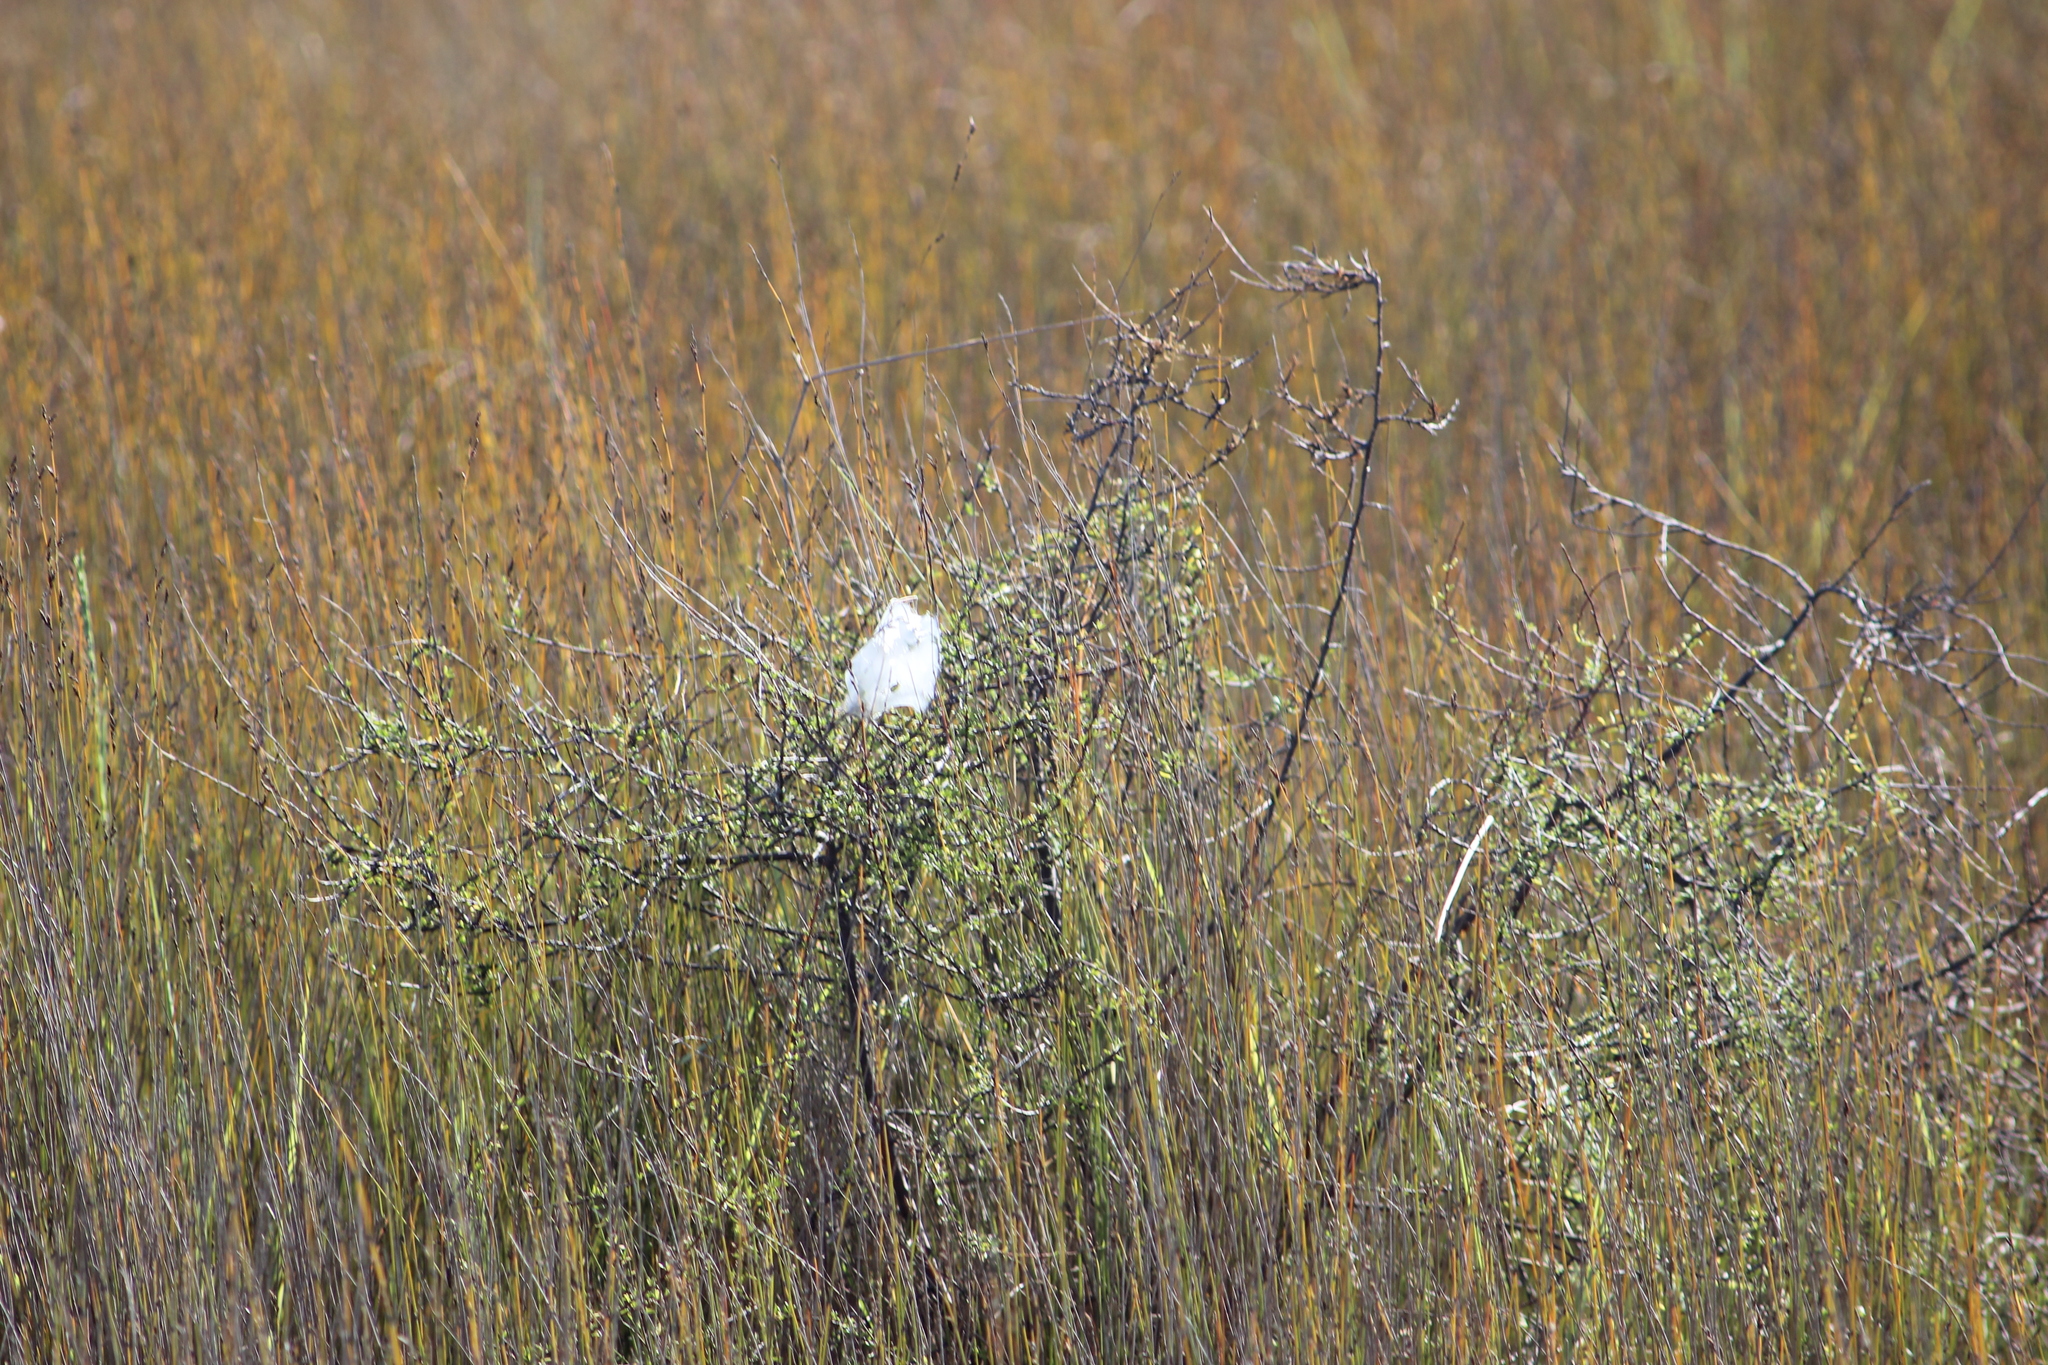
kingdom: Plantae
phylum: Tracheophyta
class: Magnoliopsida
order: Malvales
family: Malvaceae
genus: Plagianthus
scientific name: Plagianthus divaricatus
